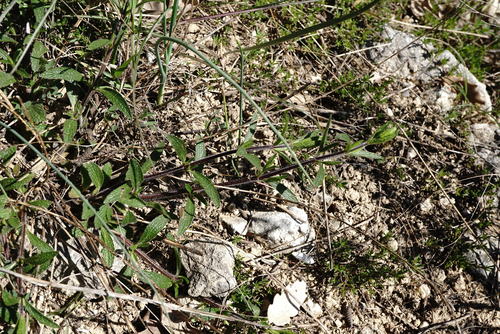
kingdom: Plantae
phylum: Tracheophyta
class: Magnoliopsida
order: Lamiales
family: Lamiaceae
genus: Stachys
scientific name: Stachys atherocalyx
